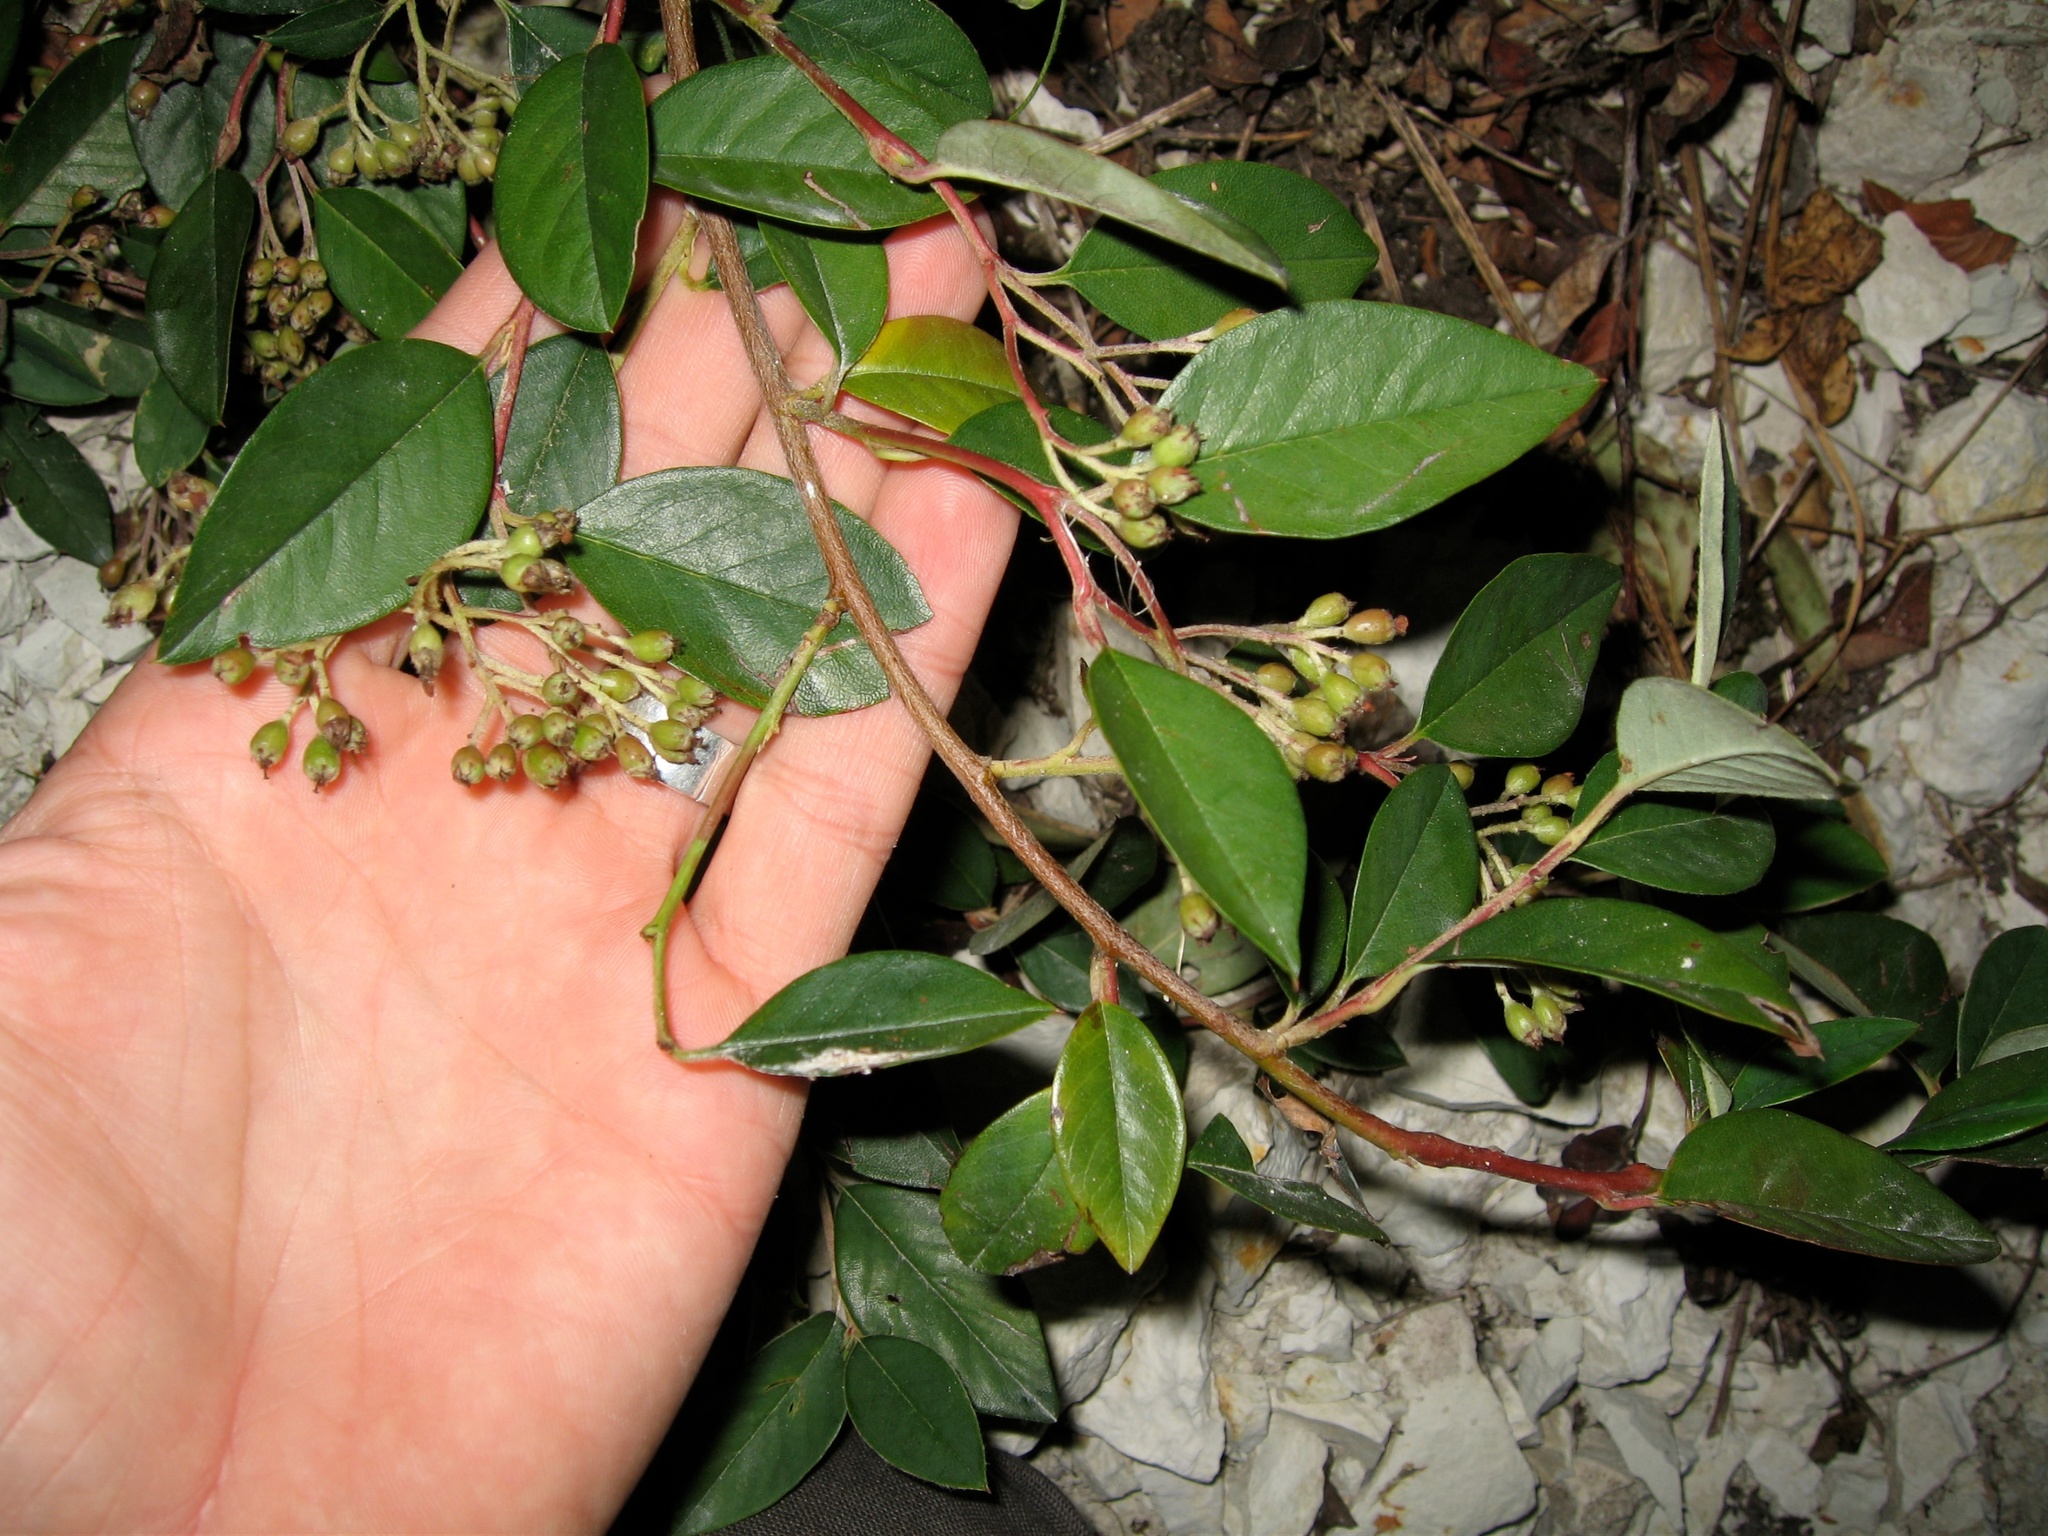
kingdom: Plantae
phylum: Tracheophyta
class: Magnoliopsida
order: Rosales
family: Rosaceae
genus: Cotoneaster
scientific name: Cotoneaster glaucophyllus
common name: Glaucous cotoneaster
